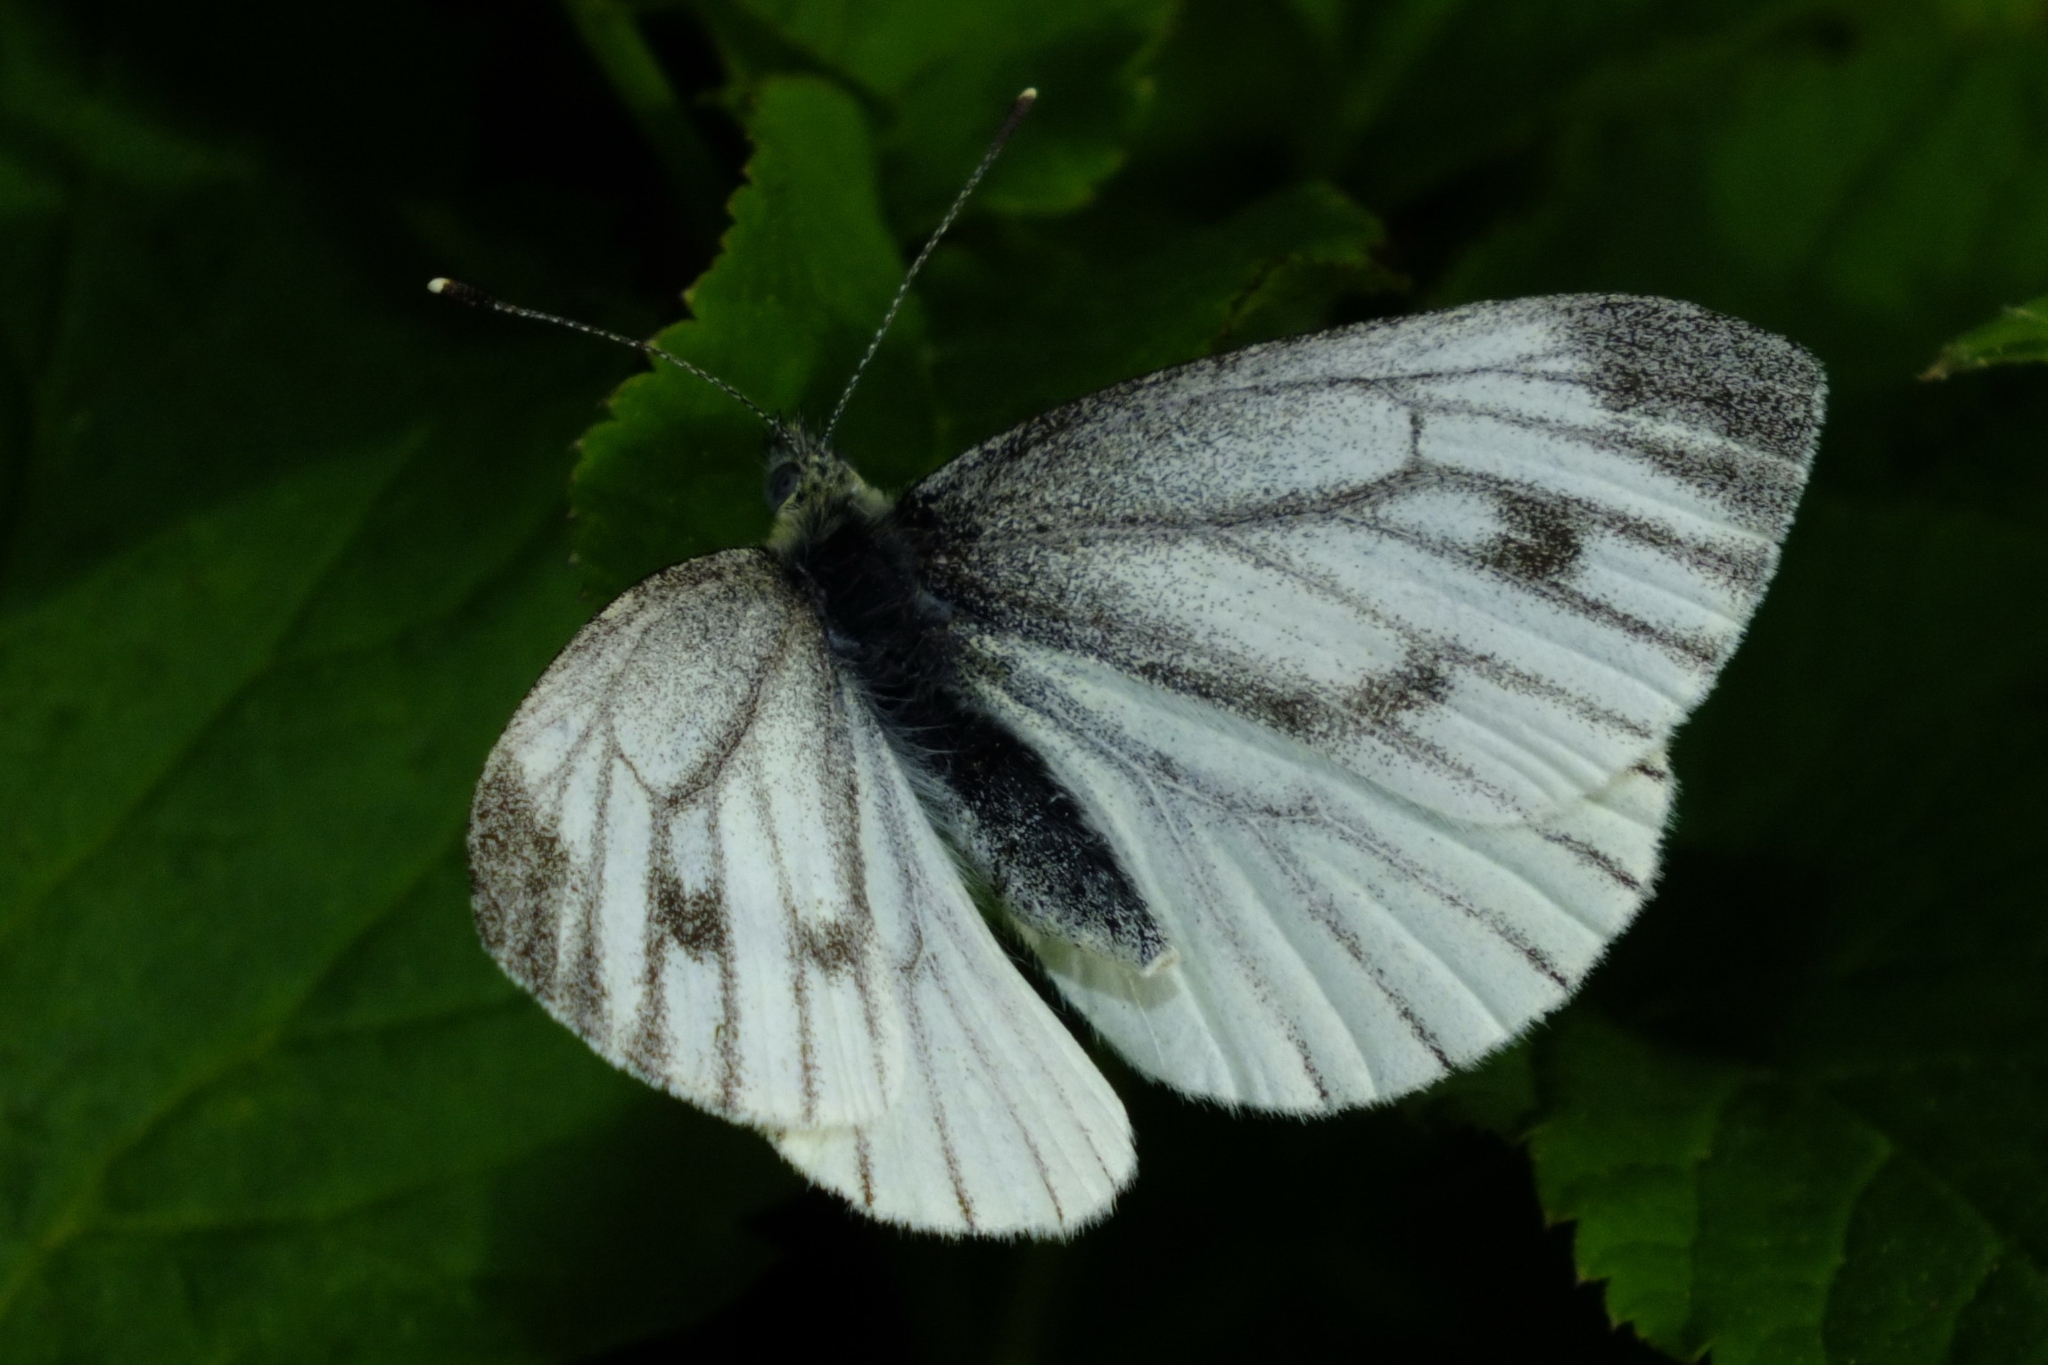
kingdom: Animalia
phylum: Arthropoda
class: Insecta
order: Lepidoptera
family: Pieridae
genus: Pieris
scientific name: Pieris napi
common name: Green-veined white
